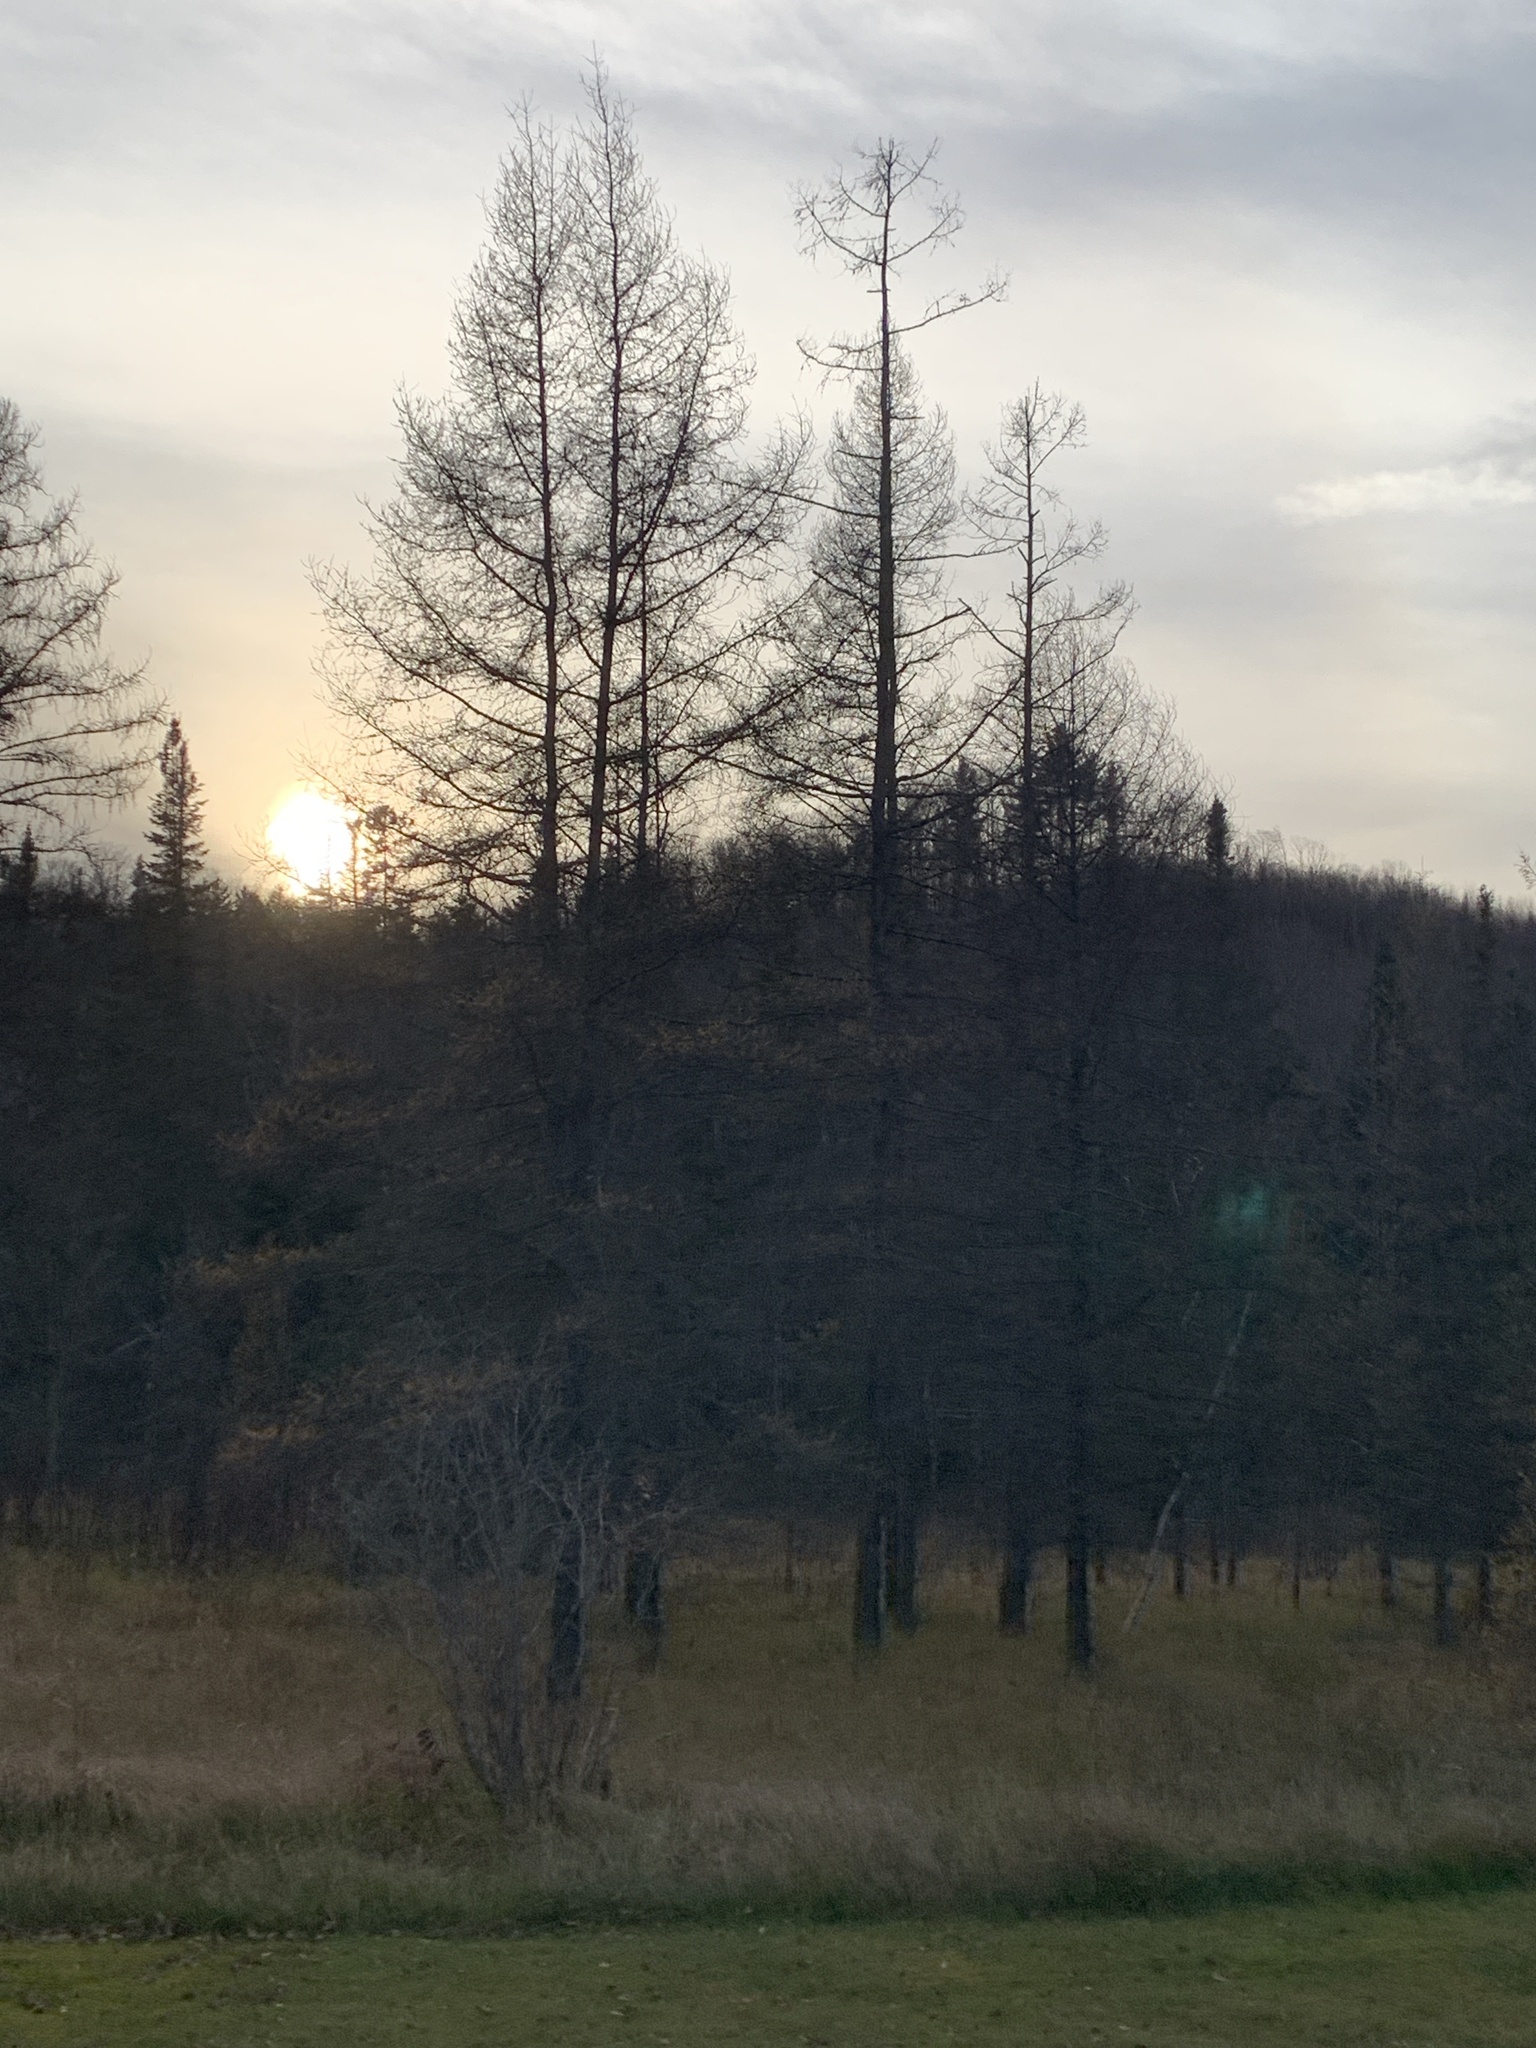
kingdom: Plantae
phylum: Tracheophyta
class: Pinopsida
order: Pinales
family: Pinaceae
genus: Larix
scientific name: Larix laricina
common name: American larch
